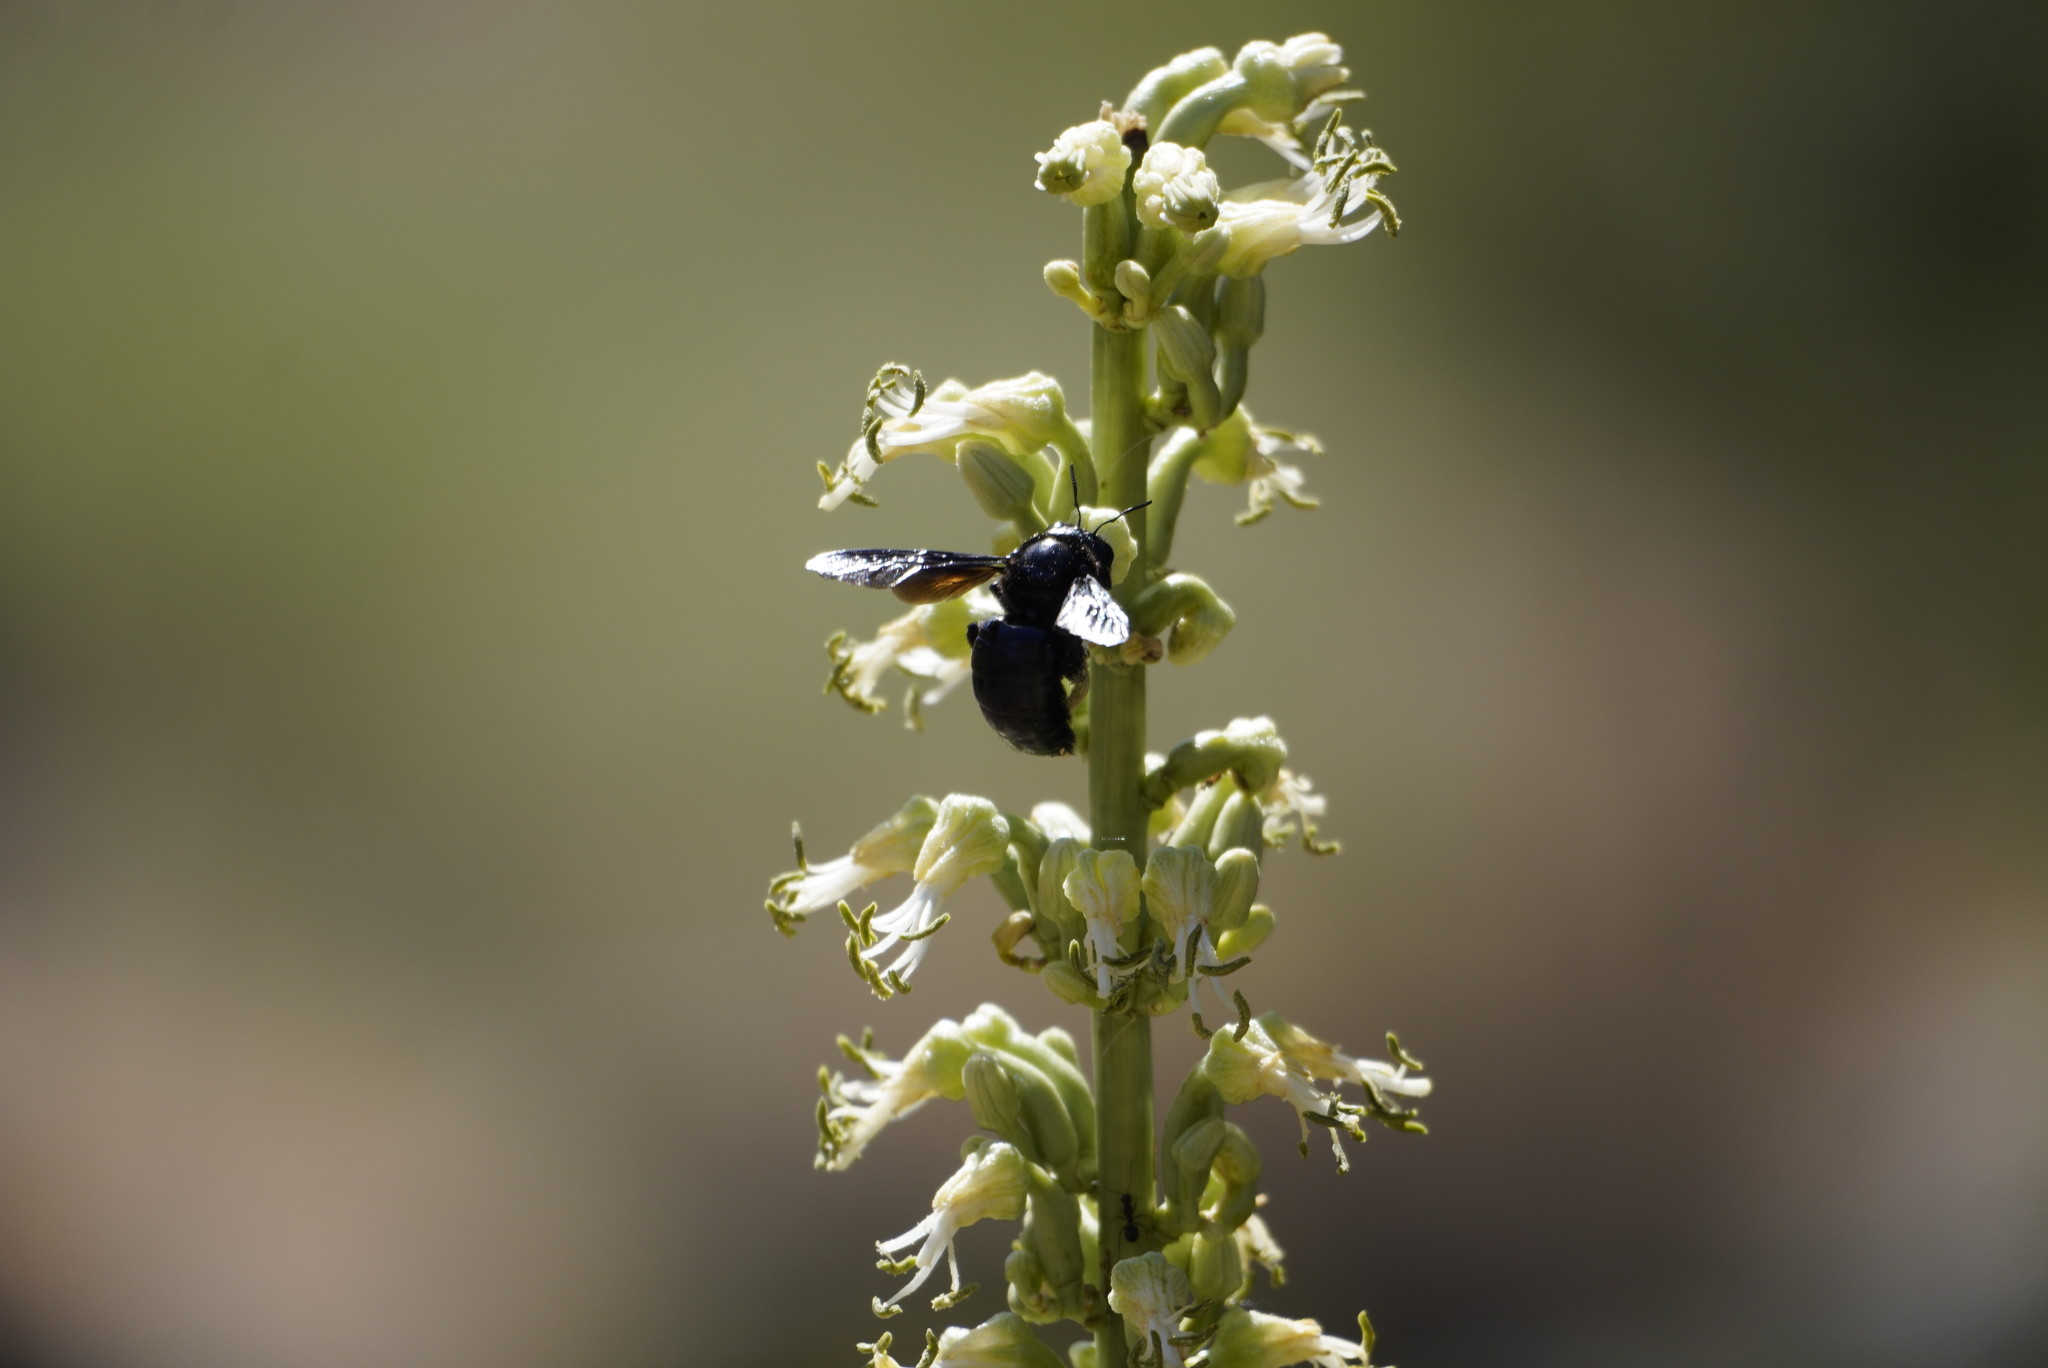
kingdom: Animalia
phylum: Arthropoda
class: Insecta
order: Hymenoptera
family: Apidae
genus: Xylocopa
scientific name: Xylocopa californica
